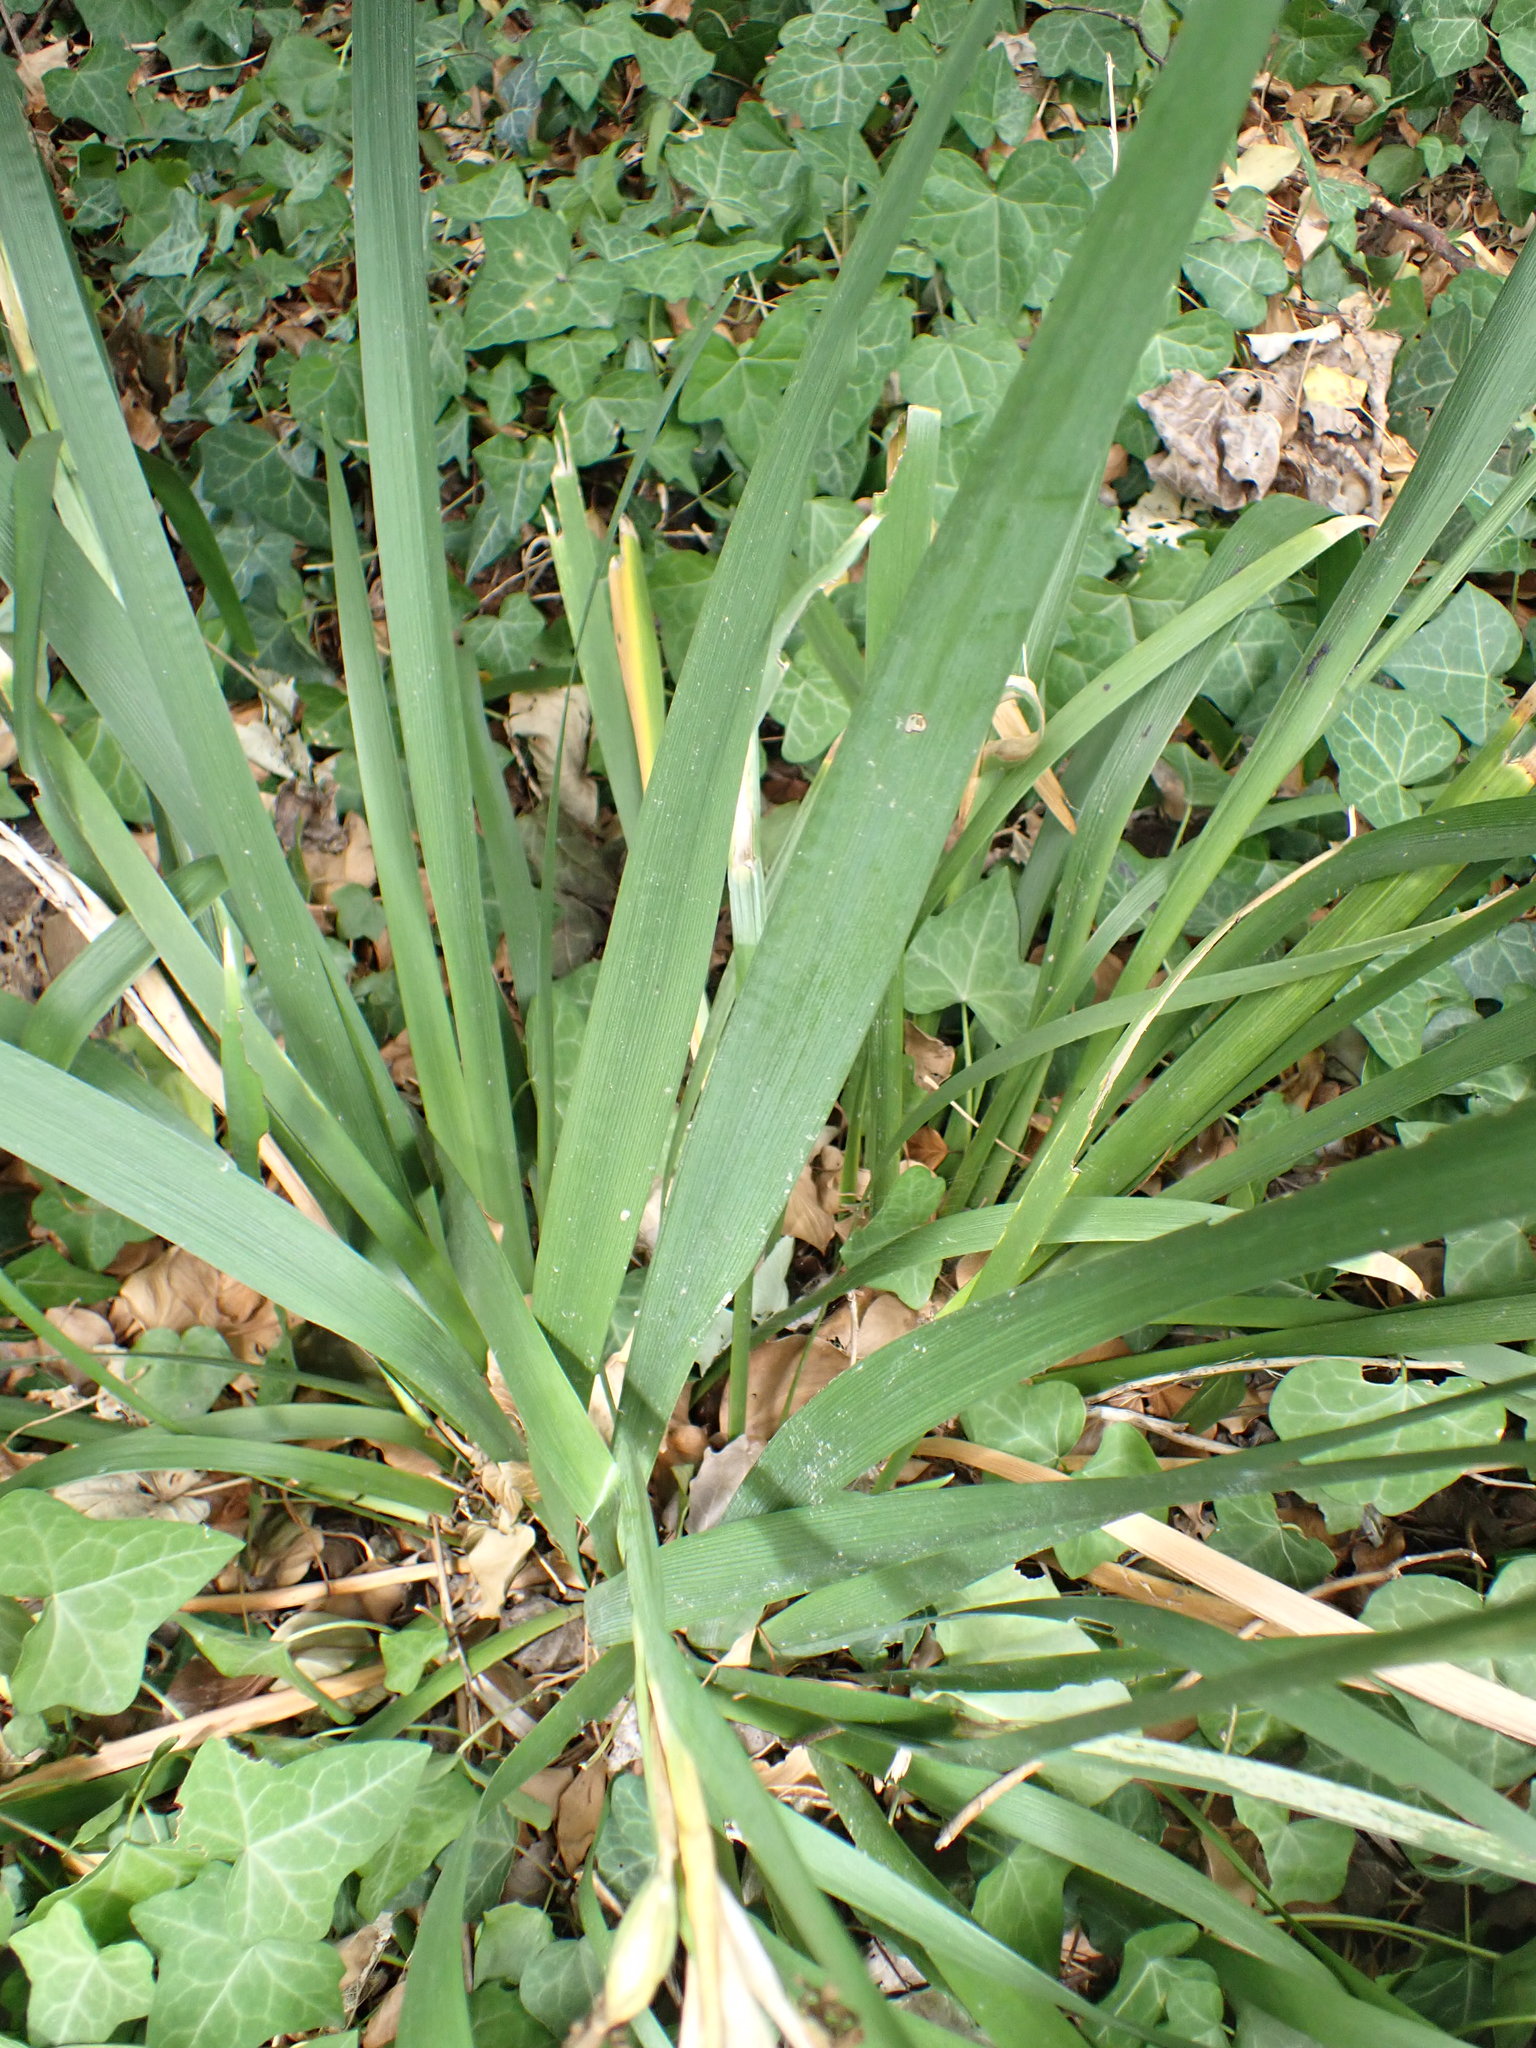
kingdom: Plantae
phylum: Tracheophyta
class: Liliopsida
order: Asparagales
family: Iridaceae
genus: Iris
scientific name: Iris foetidissima
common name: Stinking iris
